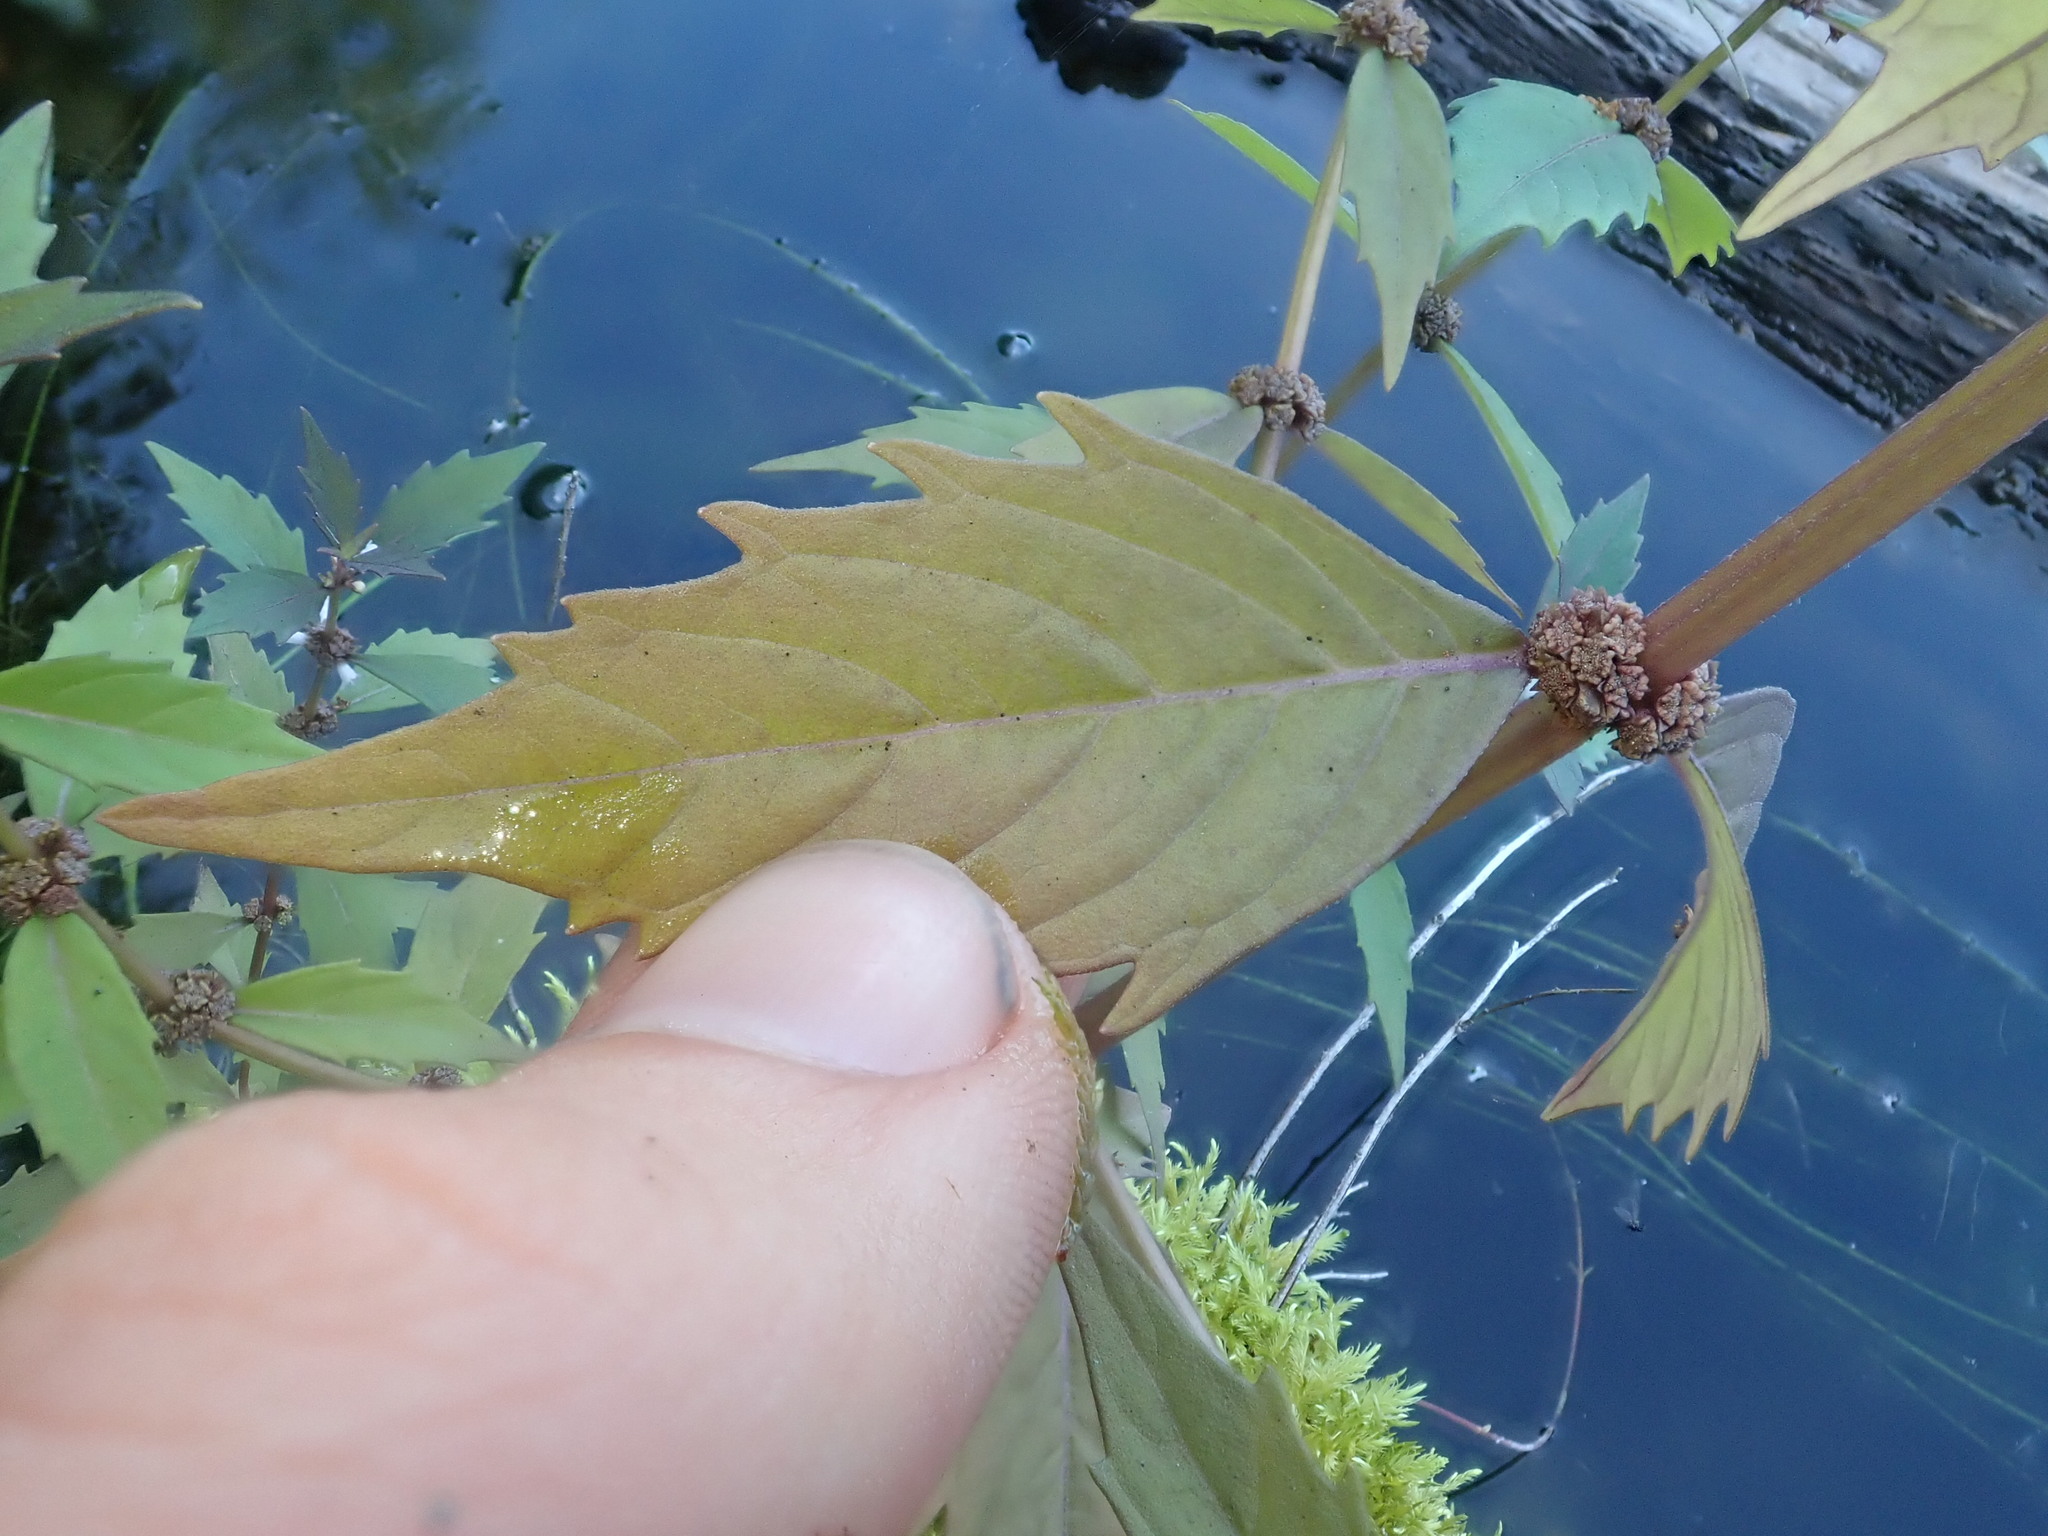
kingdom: Plantae
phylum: Tracheophyta
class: Magnoliopsida
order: Lamiales
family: Lamiaceae
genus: Lycopus
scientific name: Lycopus americanus
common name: American bugleweed
